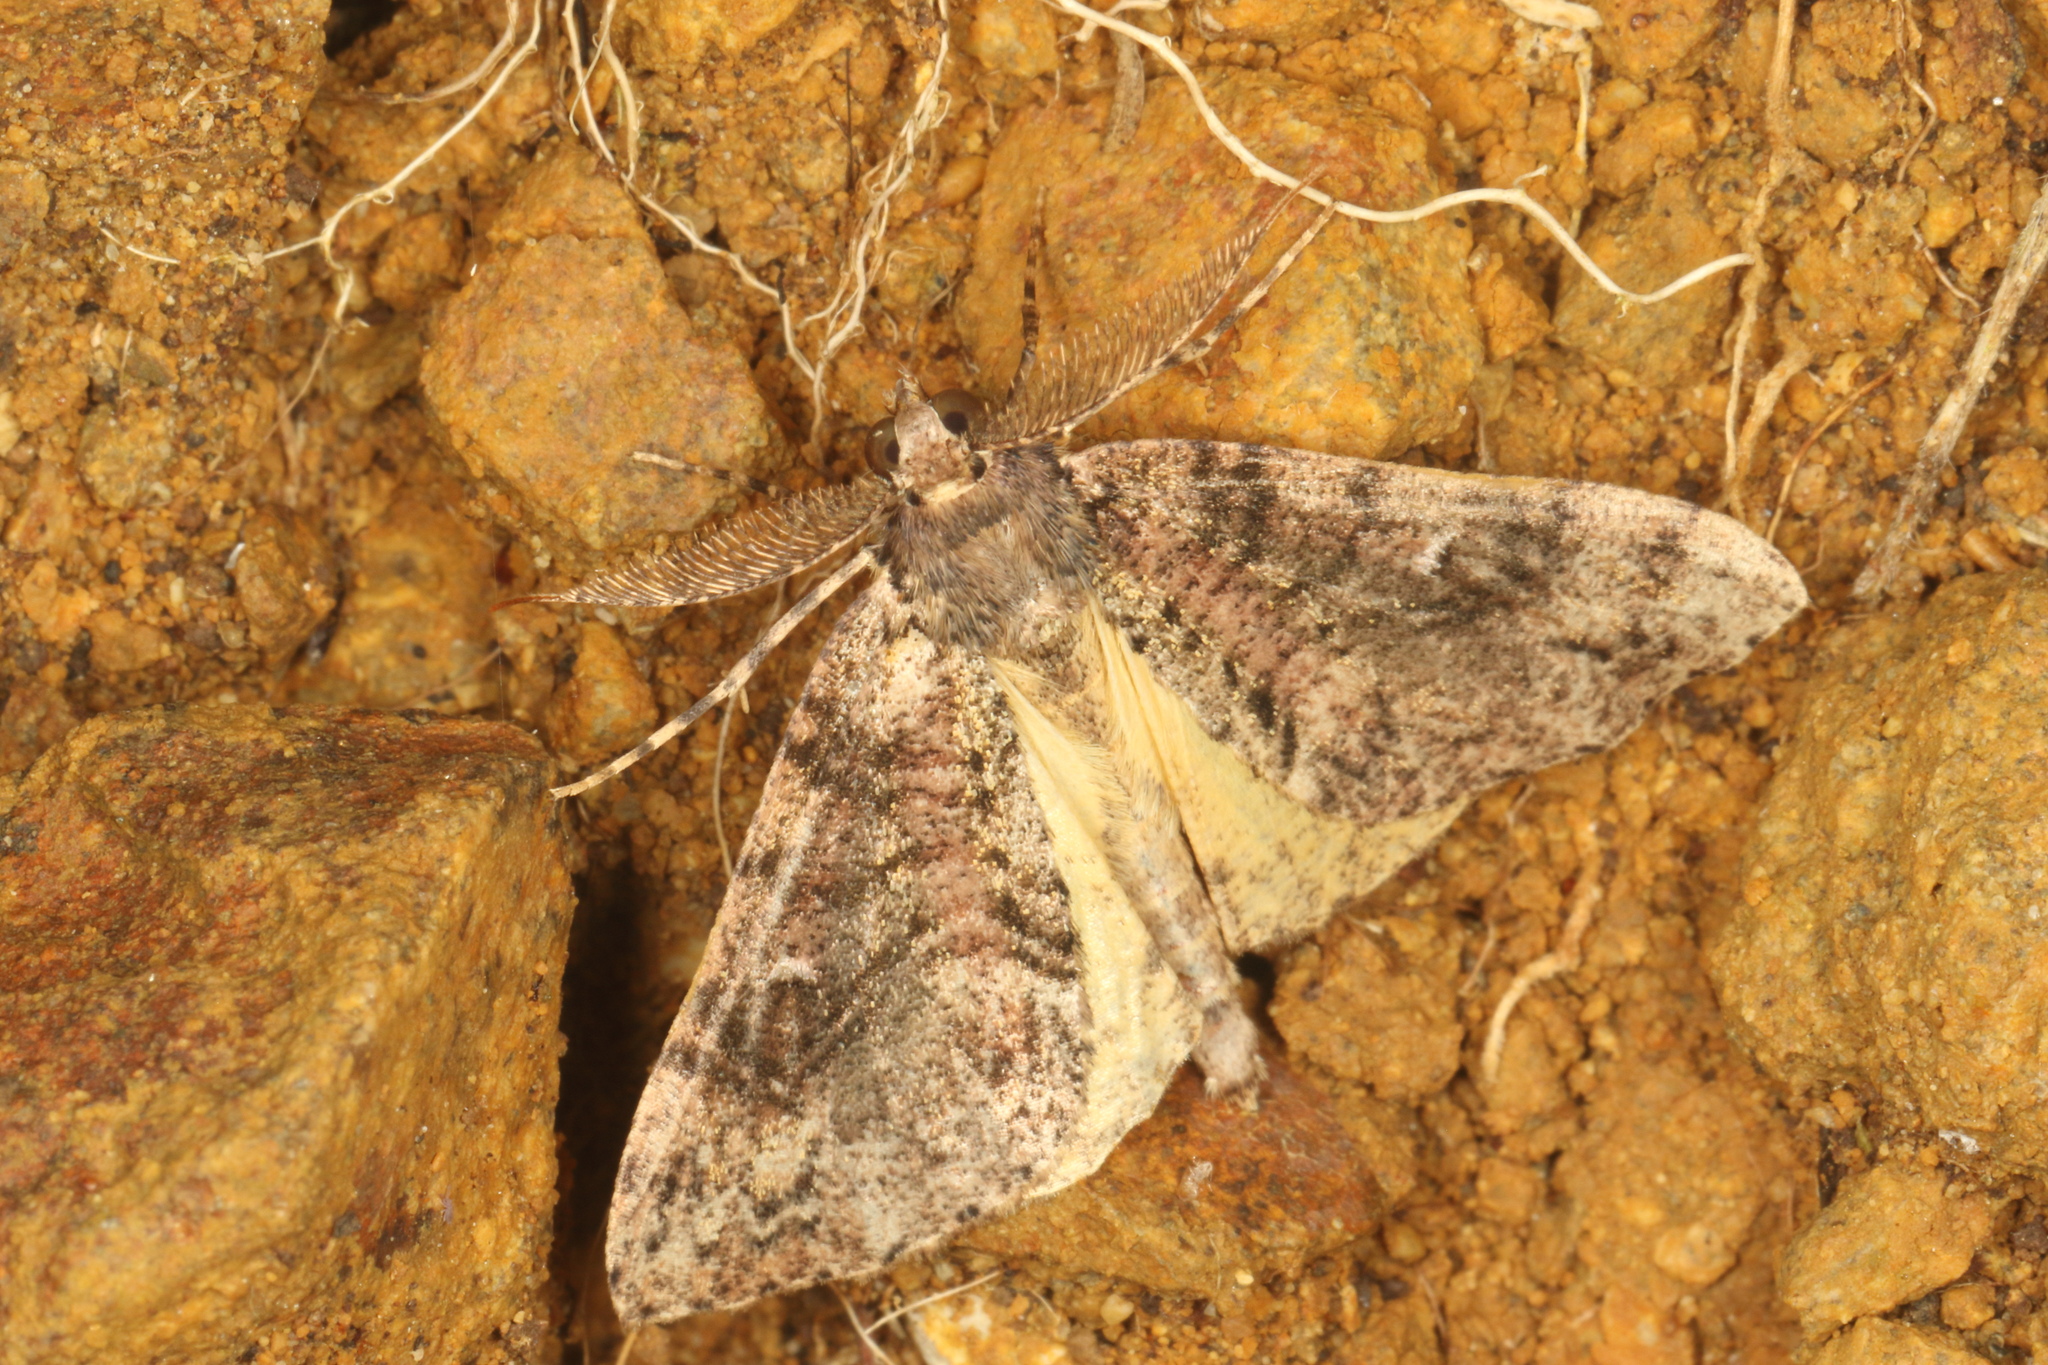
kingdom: Animalia
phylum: Arthropoda
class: Insecta
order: Lepidoptera
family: Geometridae
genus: Pseudocoremia
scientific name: Pseudocoremia suavis
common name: Common forest looper
